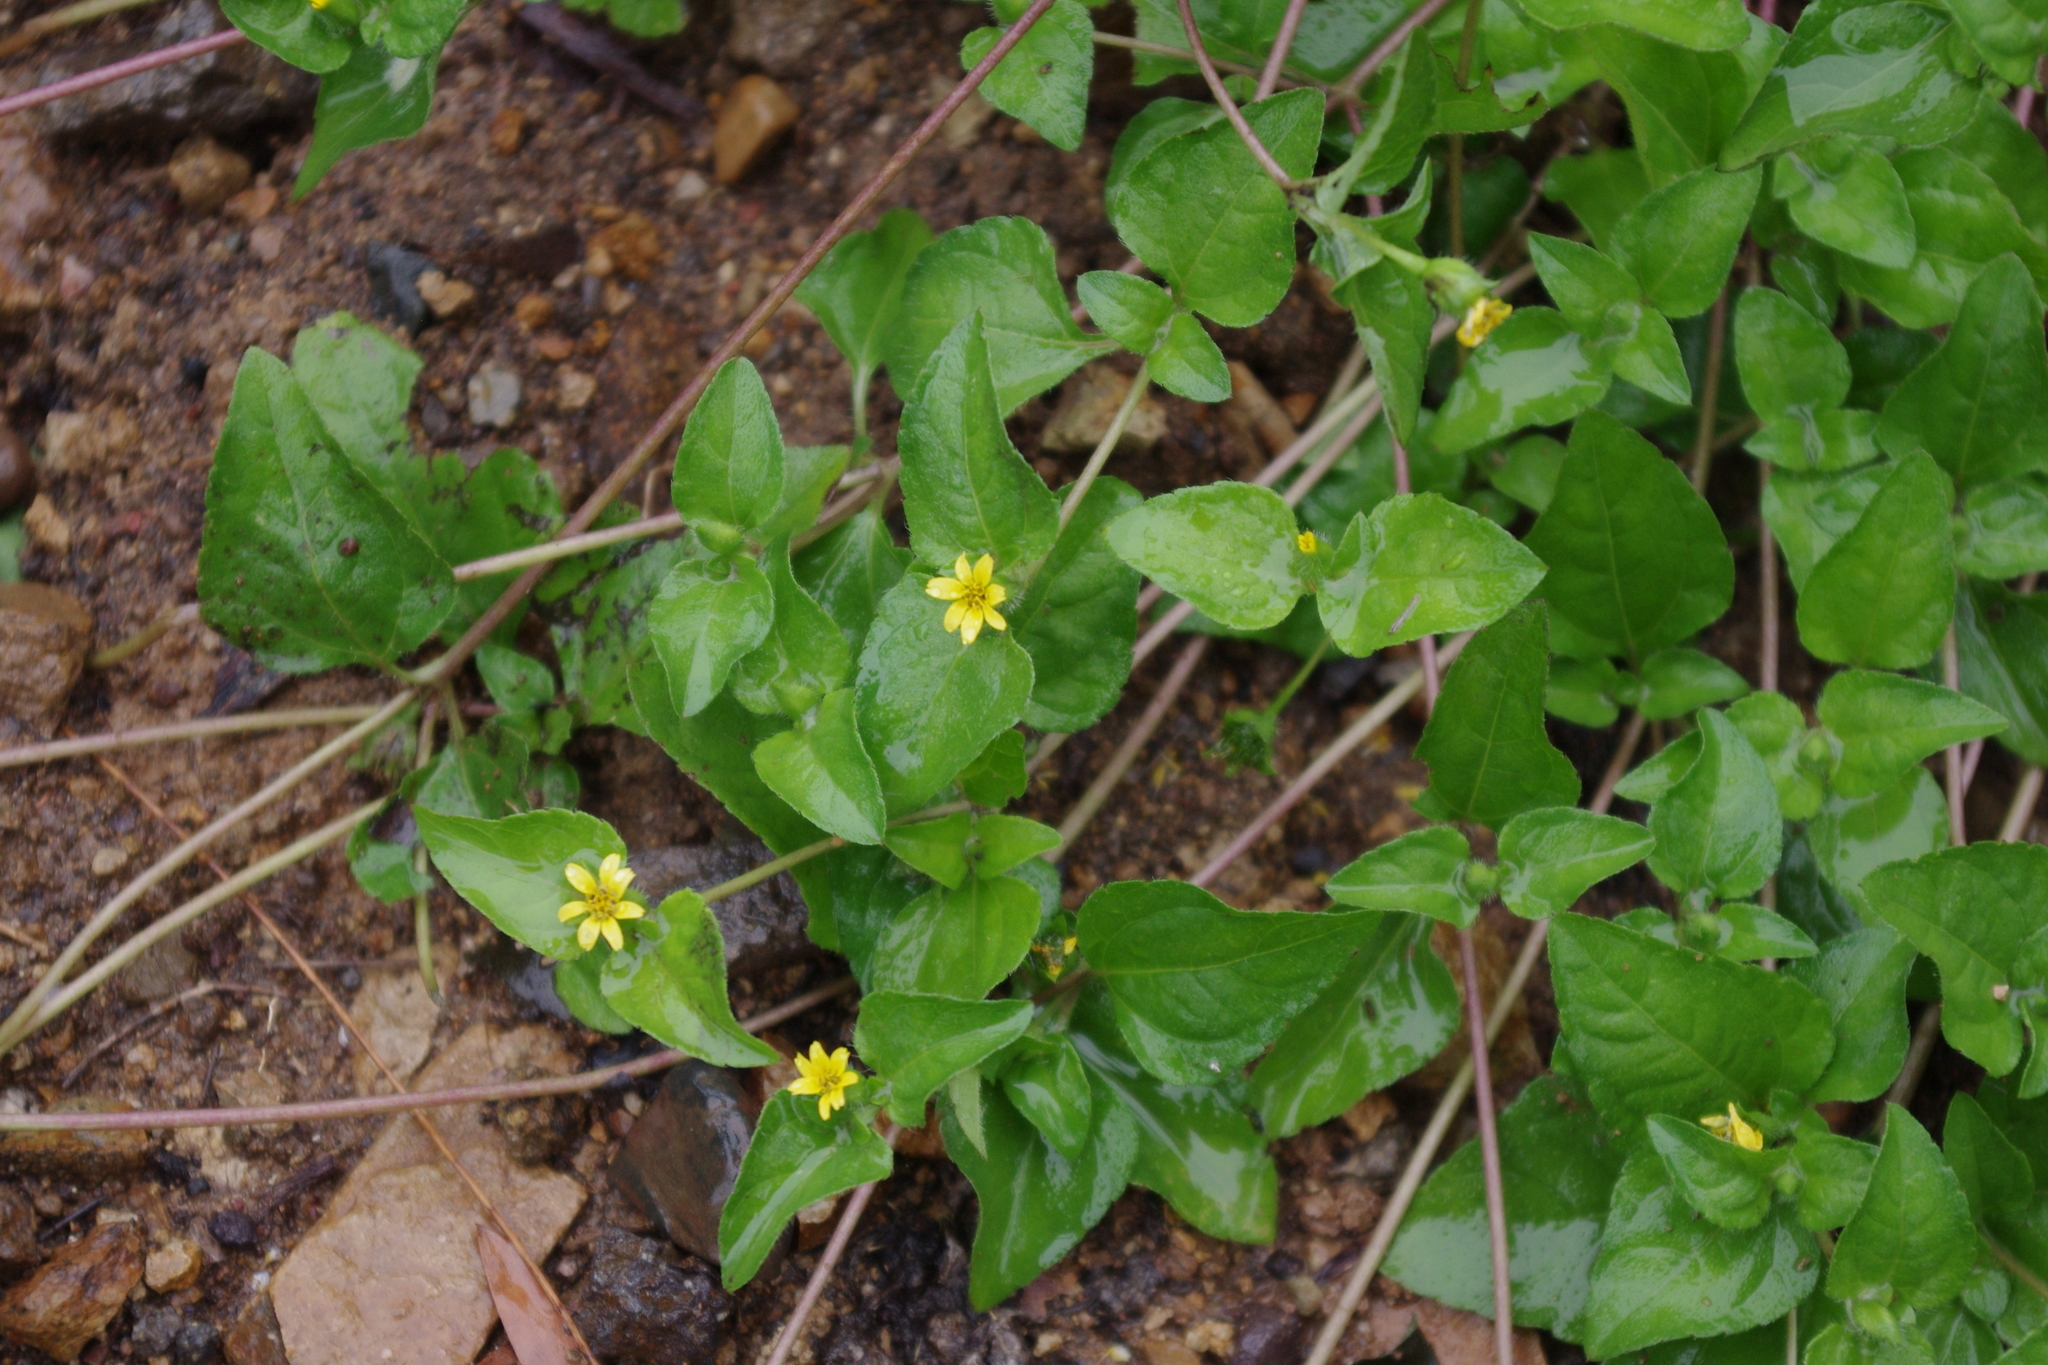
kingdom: Plantae
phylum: Tracheophyta
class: Magnoliopsida
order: Asterales
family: Asteraceae
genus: Calyptocarpus
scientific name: Calyptocarpus vialis
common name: Straggler daisy
